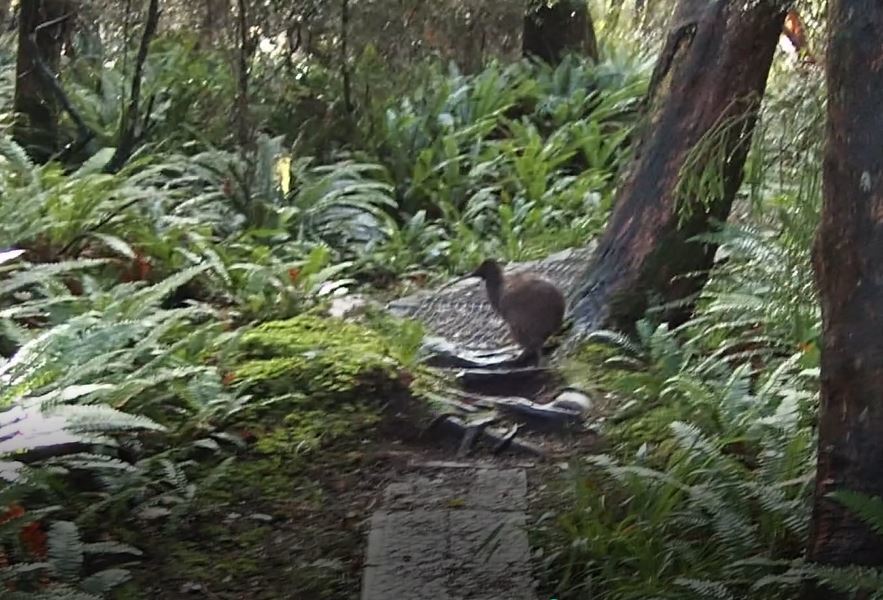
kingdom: Animalia
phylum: Chordata
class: Aves
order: Apterygiformes
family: Apterygidae
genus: Apteryx
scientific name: Apteryx australis
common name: Southern brown kiwi
